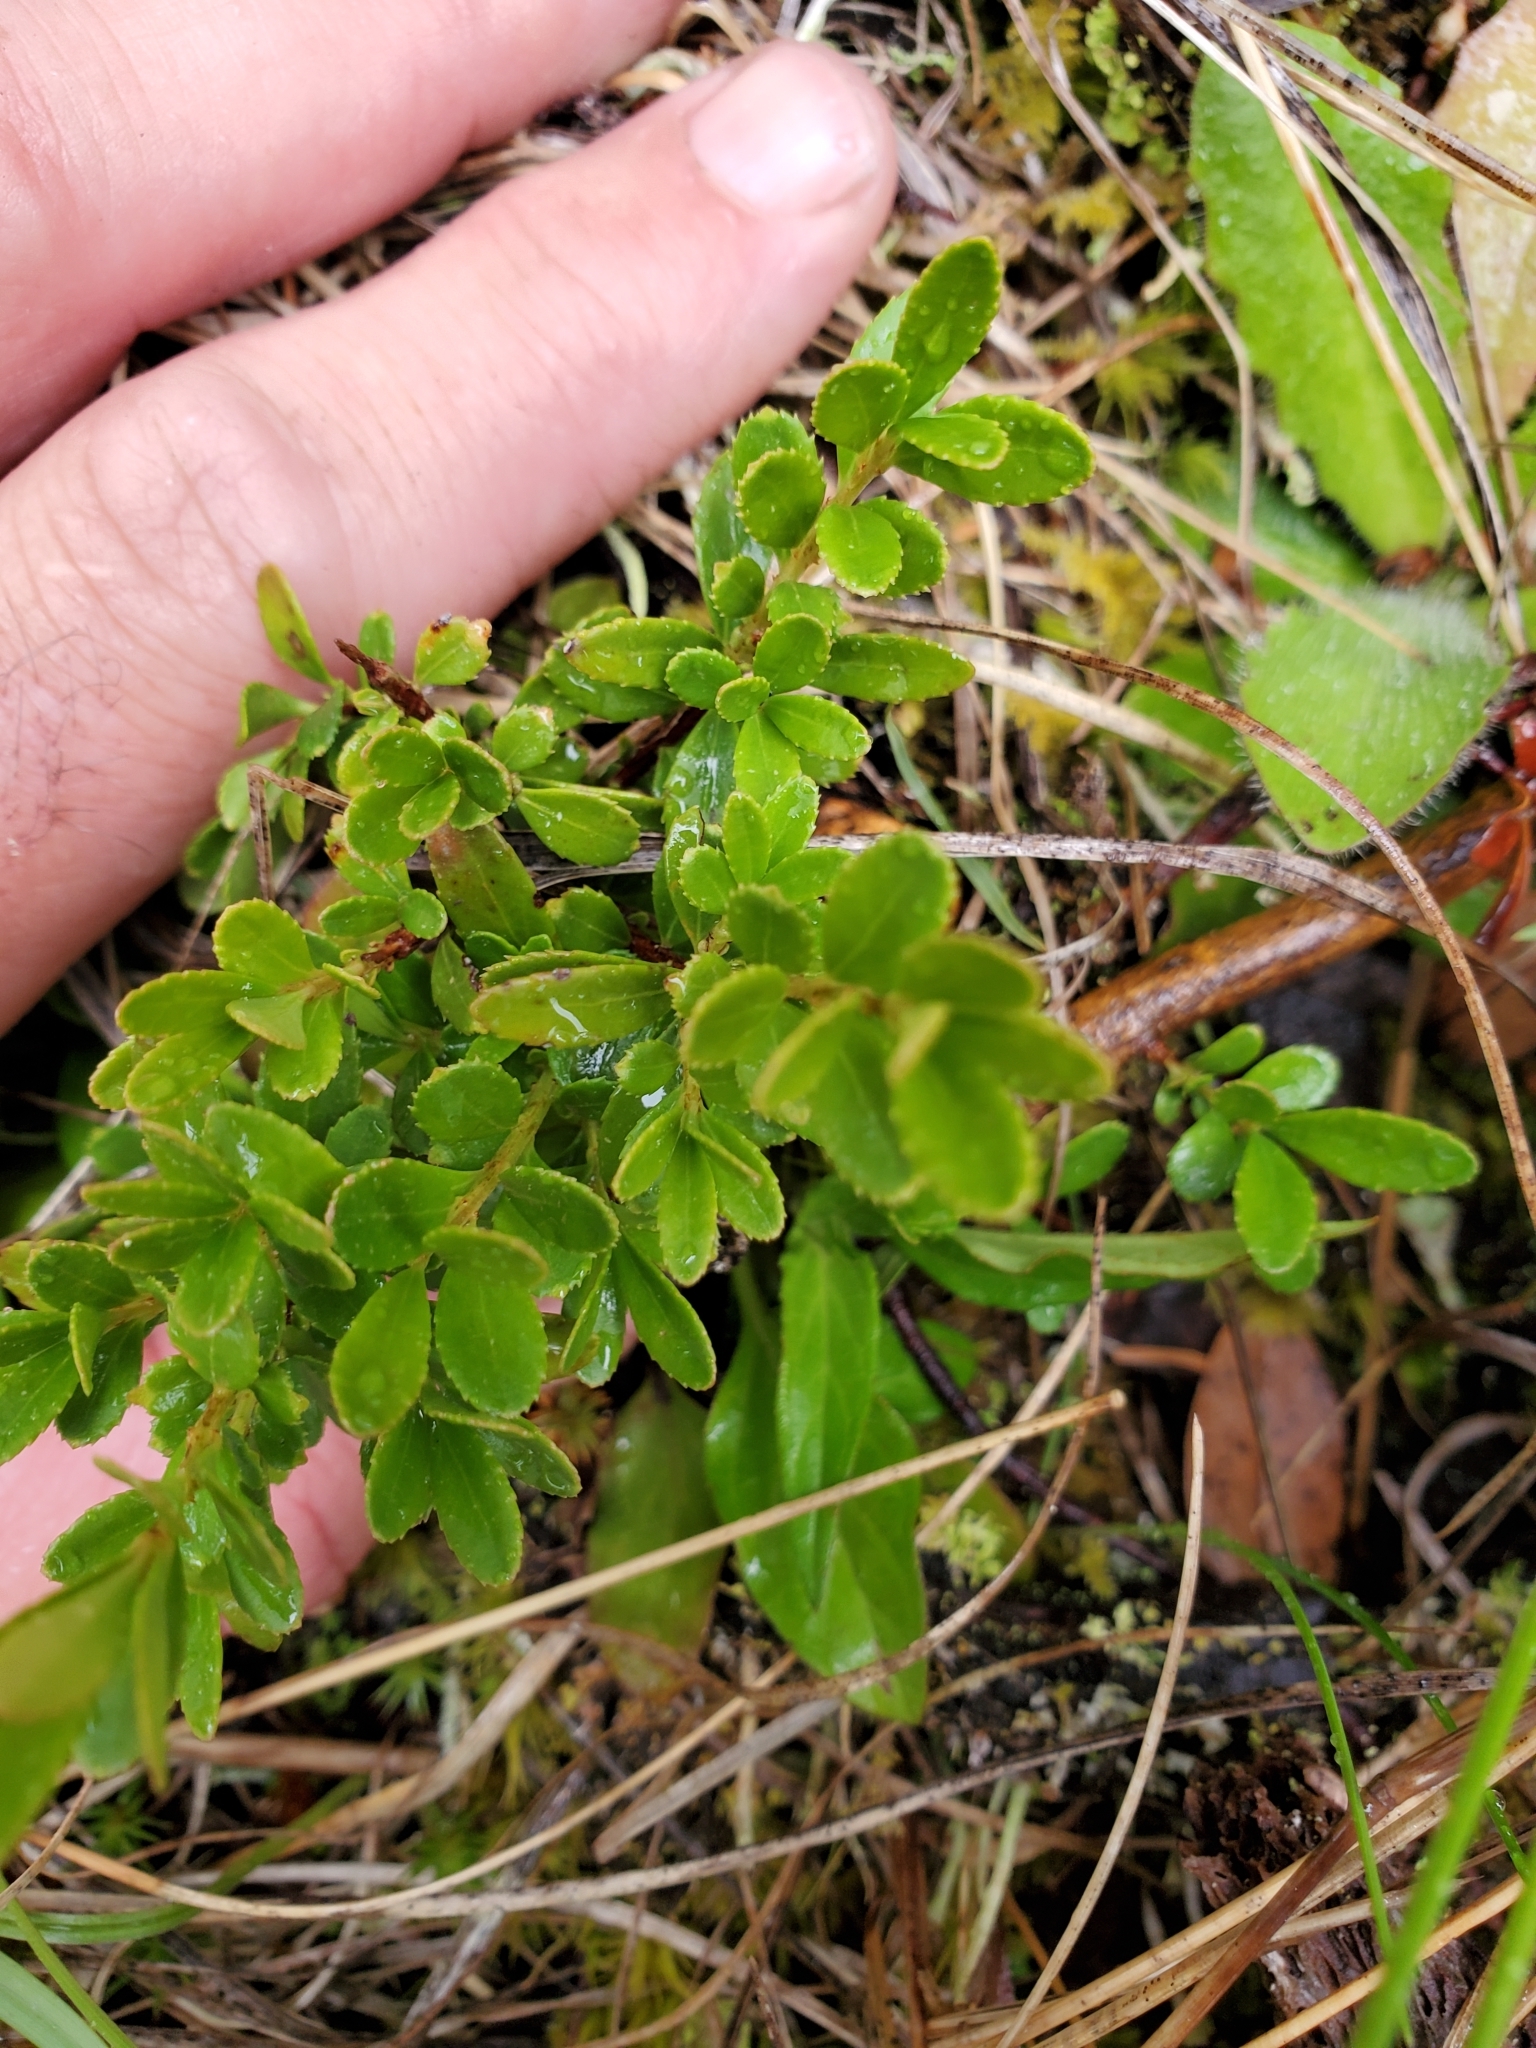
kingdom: Plantae
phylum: Tracheophyta
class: Magnoliopsida
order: Celastrales
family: Celastraceae
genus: Paxistima
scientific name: Paxistima myrsinites
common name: Mountain-lover
